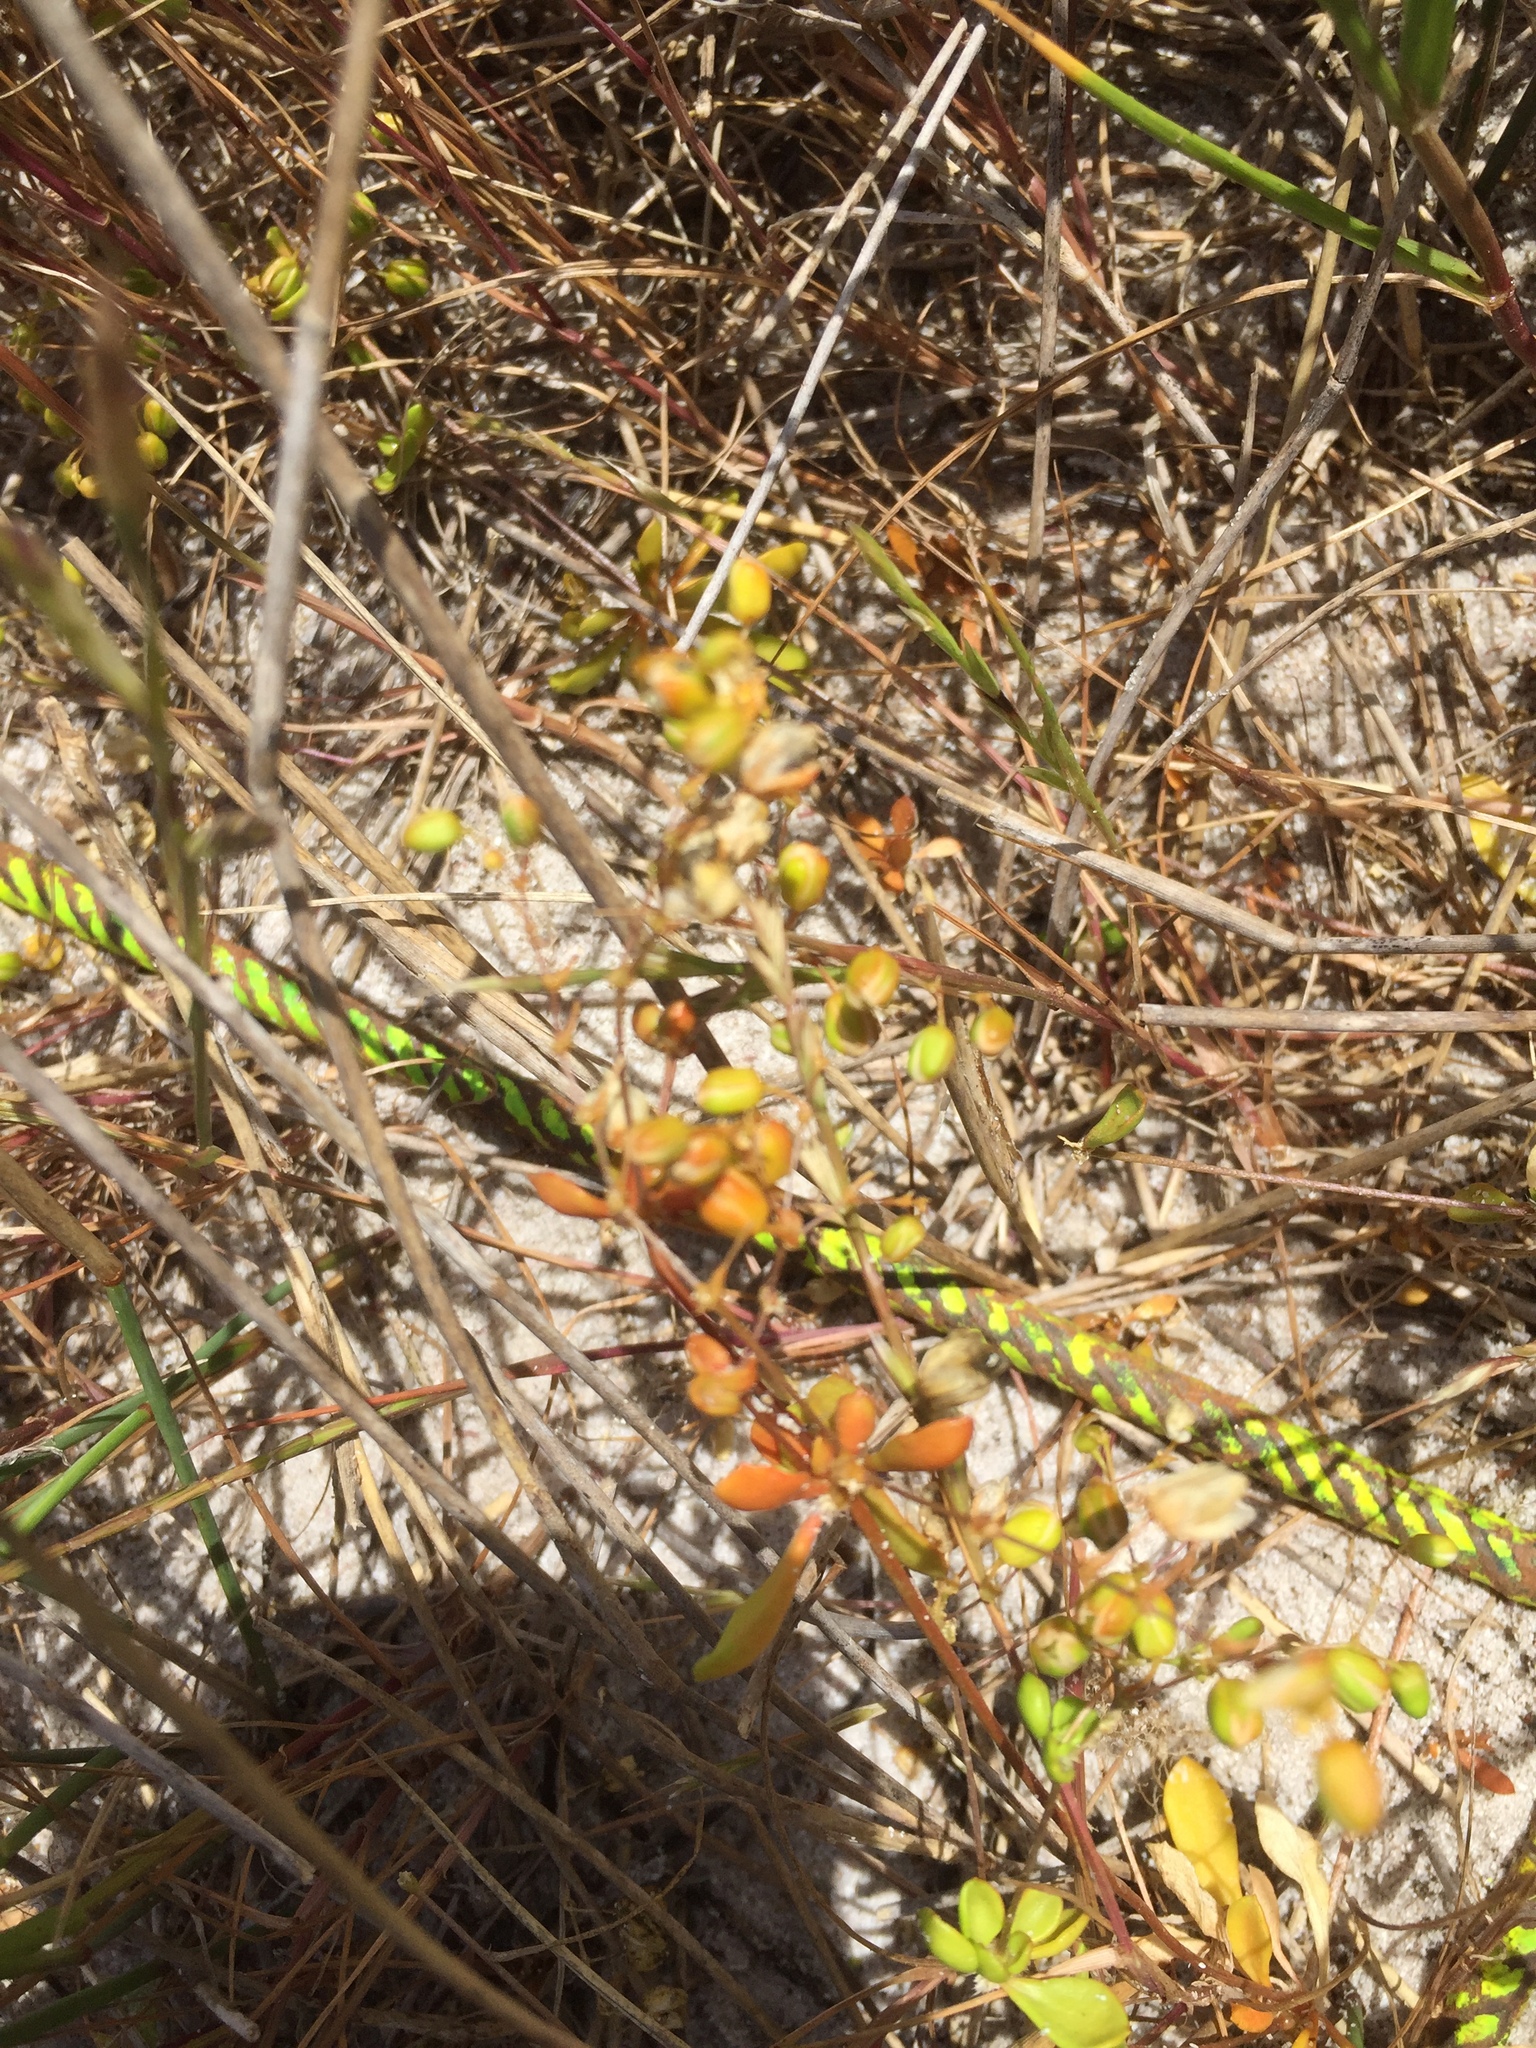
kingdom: Plantae
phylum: Tracheophyta
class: Magnoliopsida
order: Caryophyllales
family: Molluginaceae
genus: Pharnaceum
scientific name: Pharnaceum cordifolium
